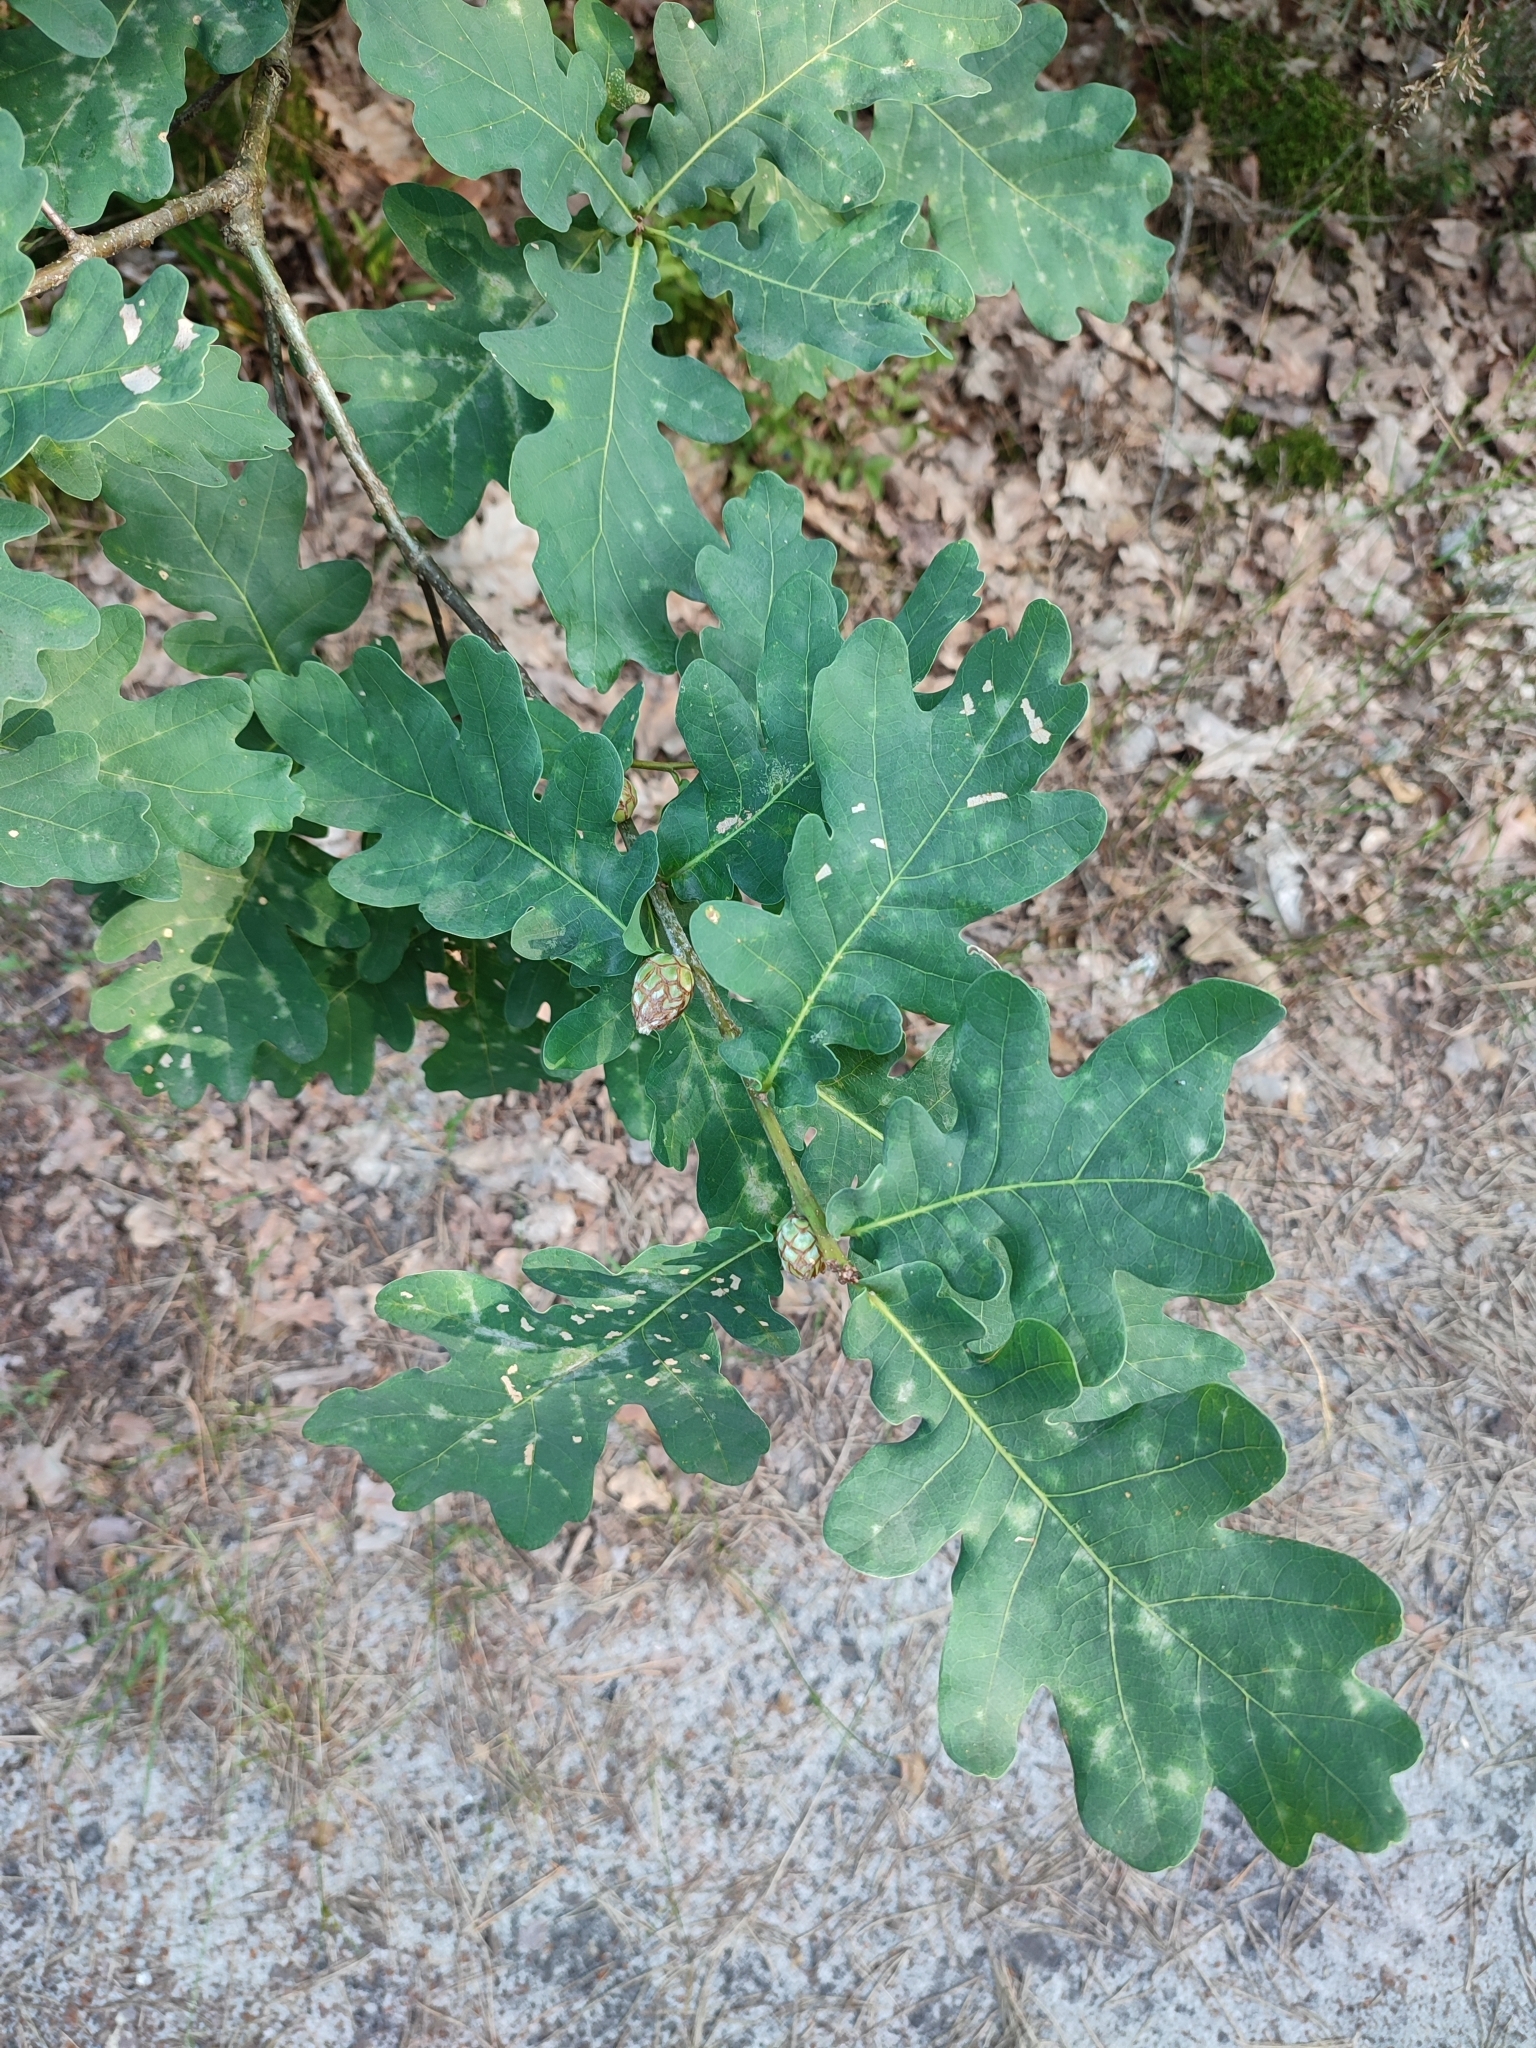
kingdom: Plantae
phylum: Tracheophyta
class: Magnoliopsida
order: Fagales
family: Fagaceae
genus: Quercus
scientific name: Quercus robur
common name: Pedunculate oak
